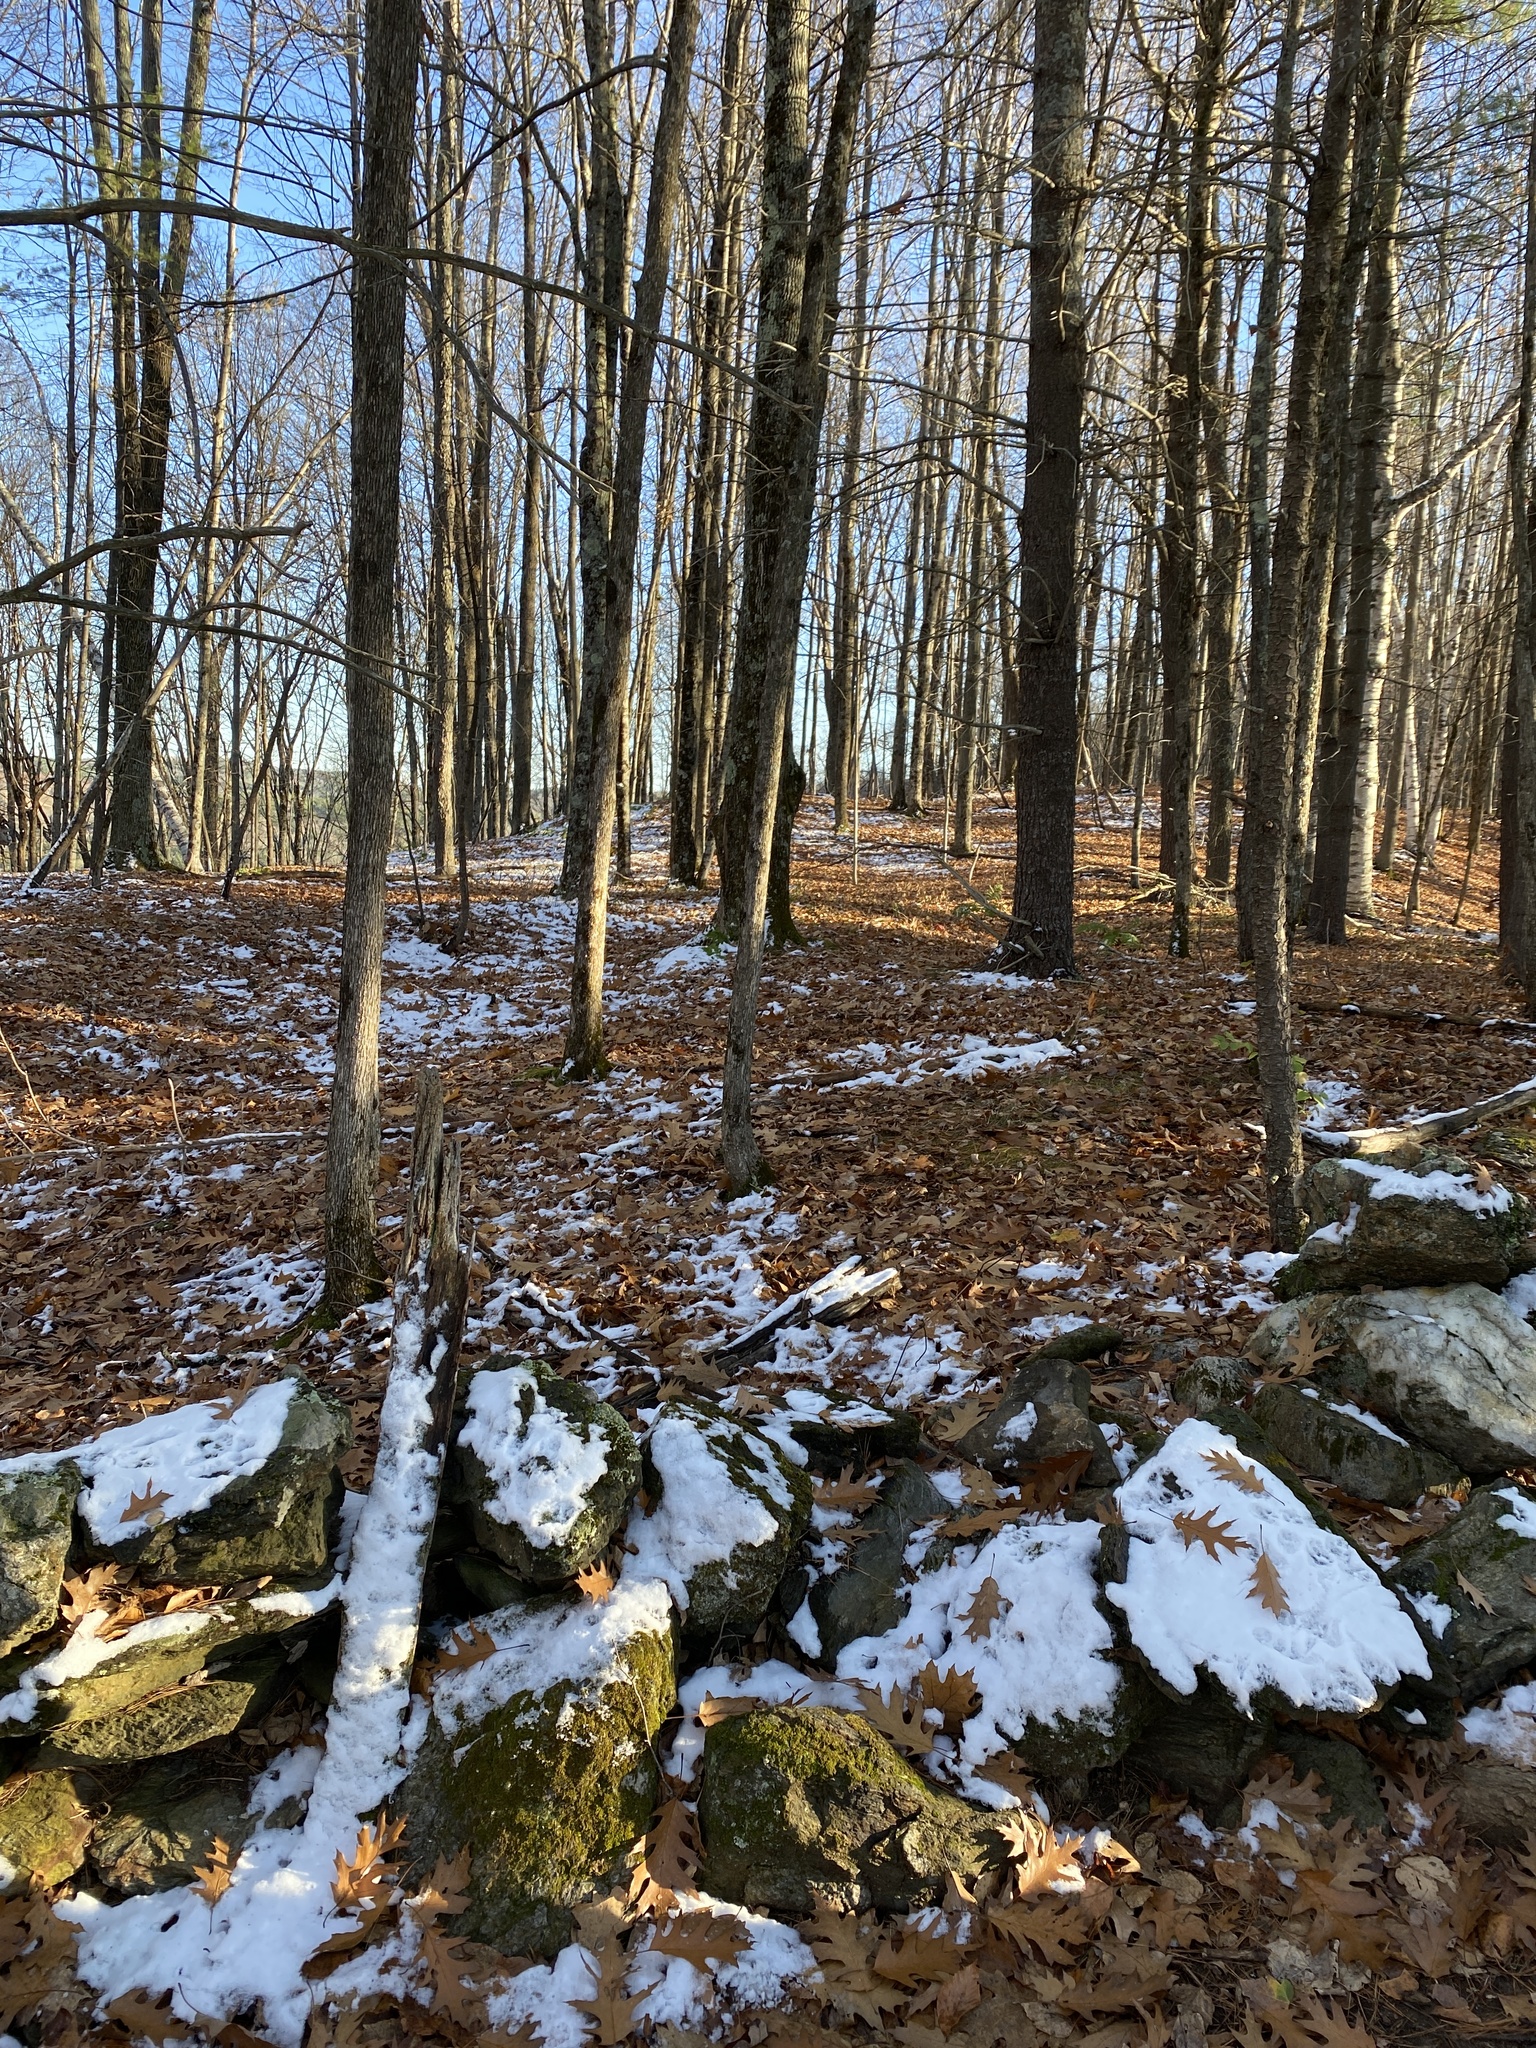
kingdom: Plantae
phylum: Tracheophyta
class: Magnoliopsida
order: Fagales
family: Fagaceae
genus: Quercus
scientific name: Quercus rubra
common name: Red oak
